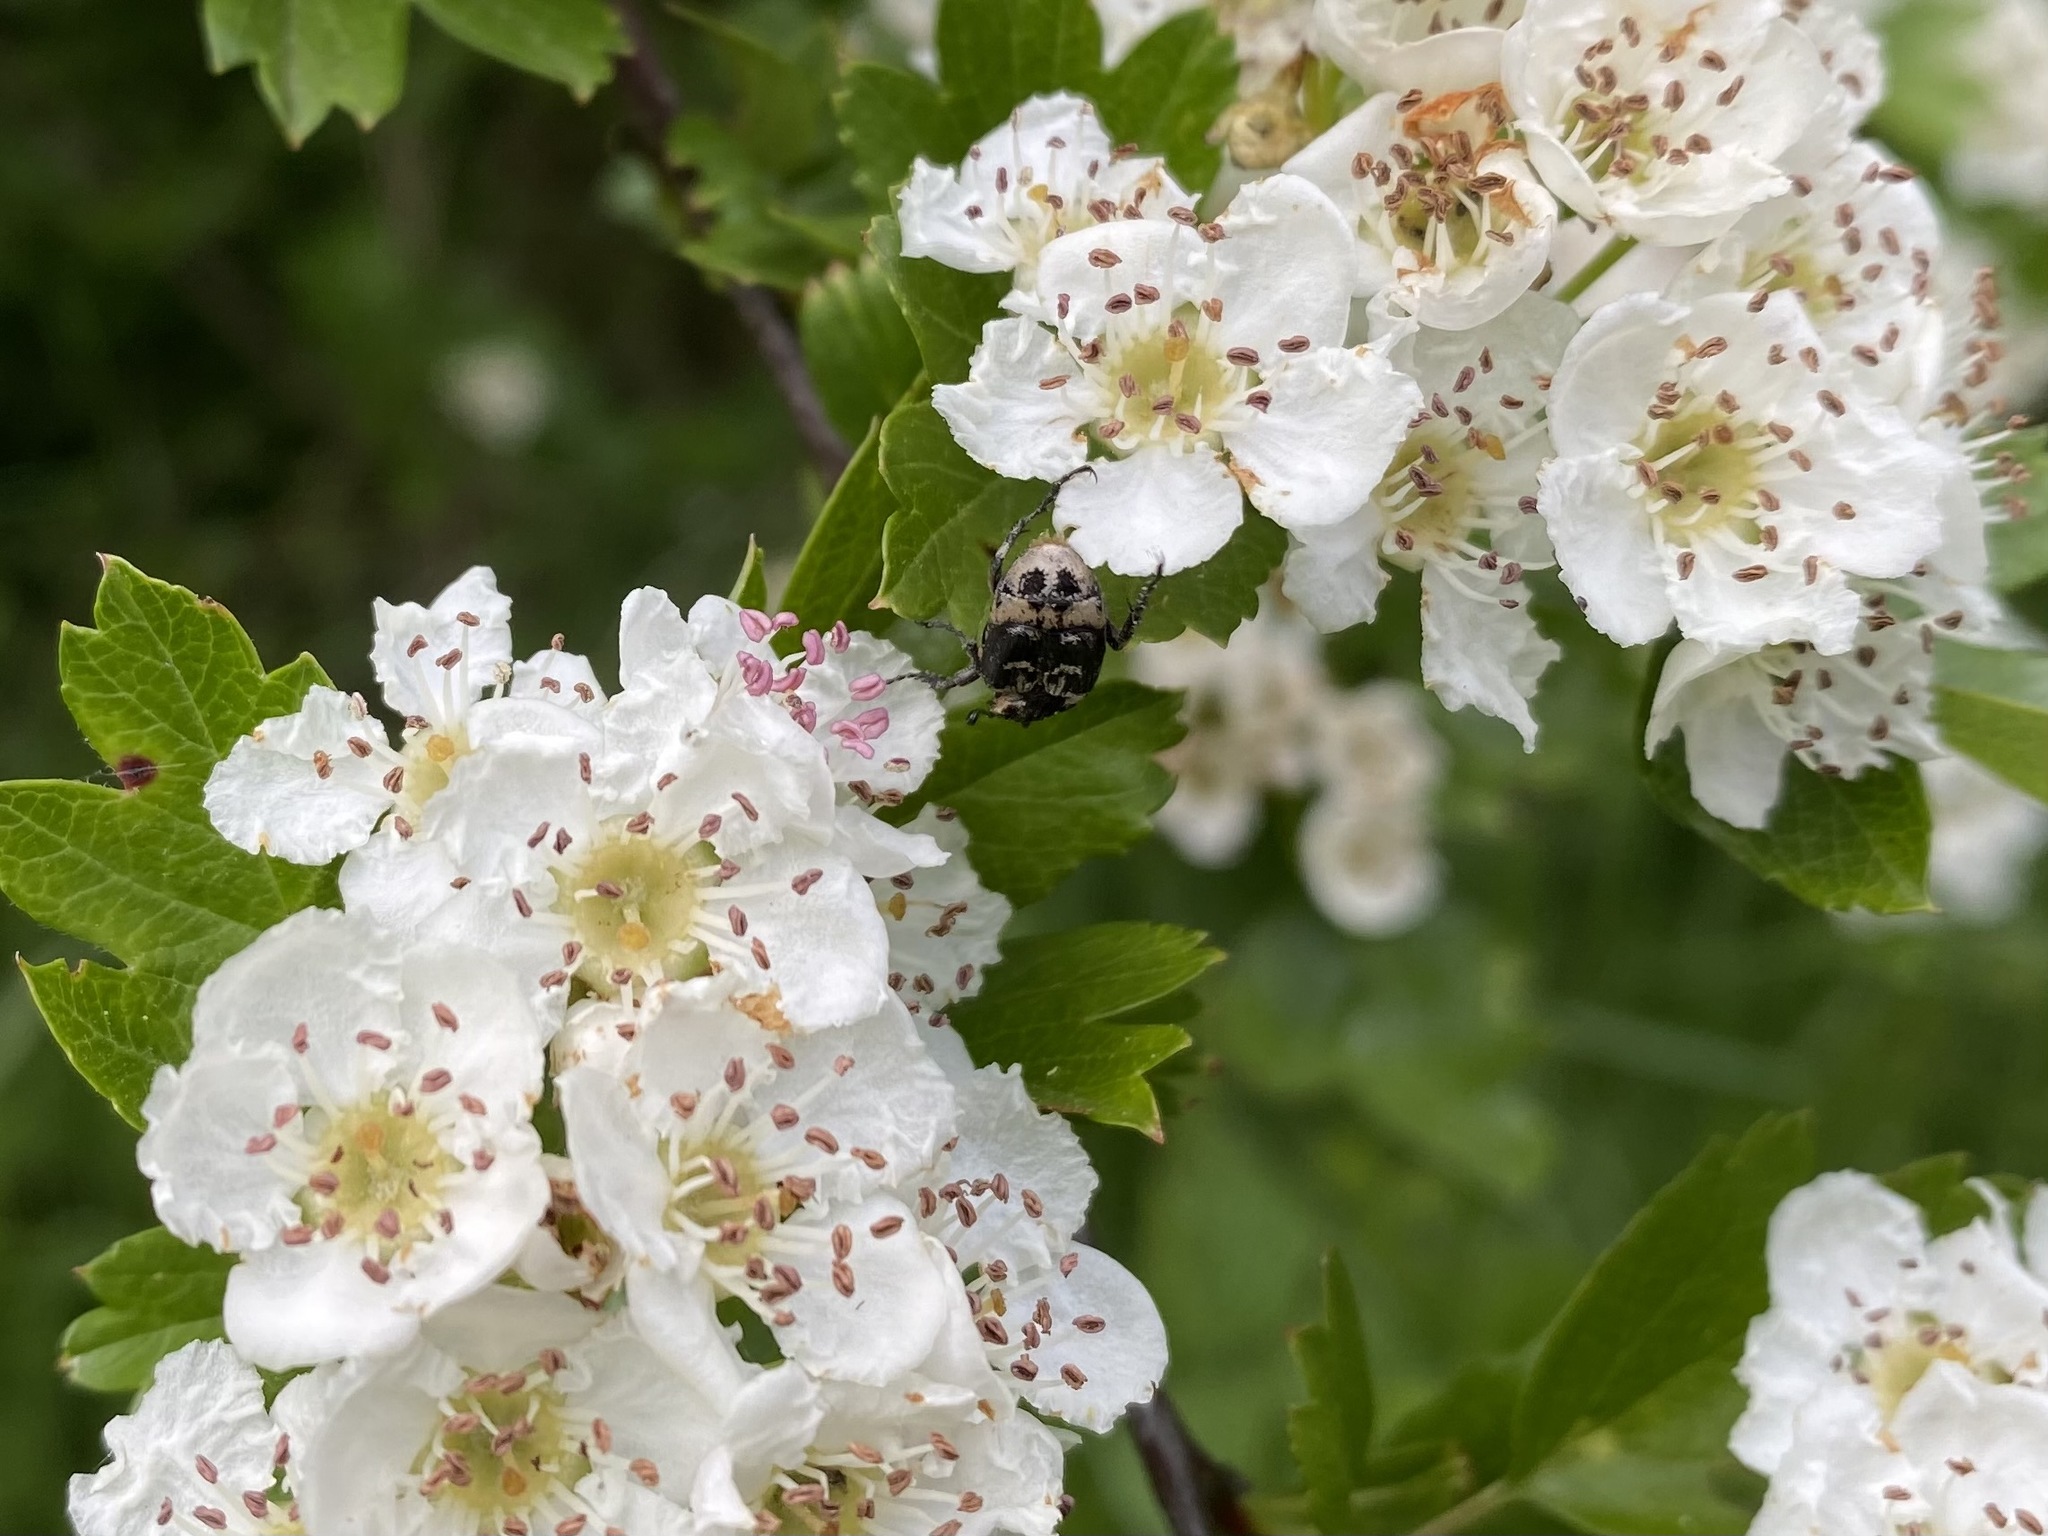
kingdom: Animalia
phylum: Arthropoda
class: Insecta
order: Coleoptera
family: Scarabaeidae
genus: Valgus
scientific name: Valgus hemipterus
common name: Bug flower chafer
